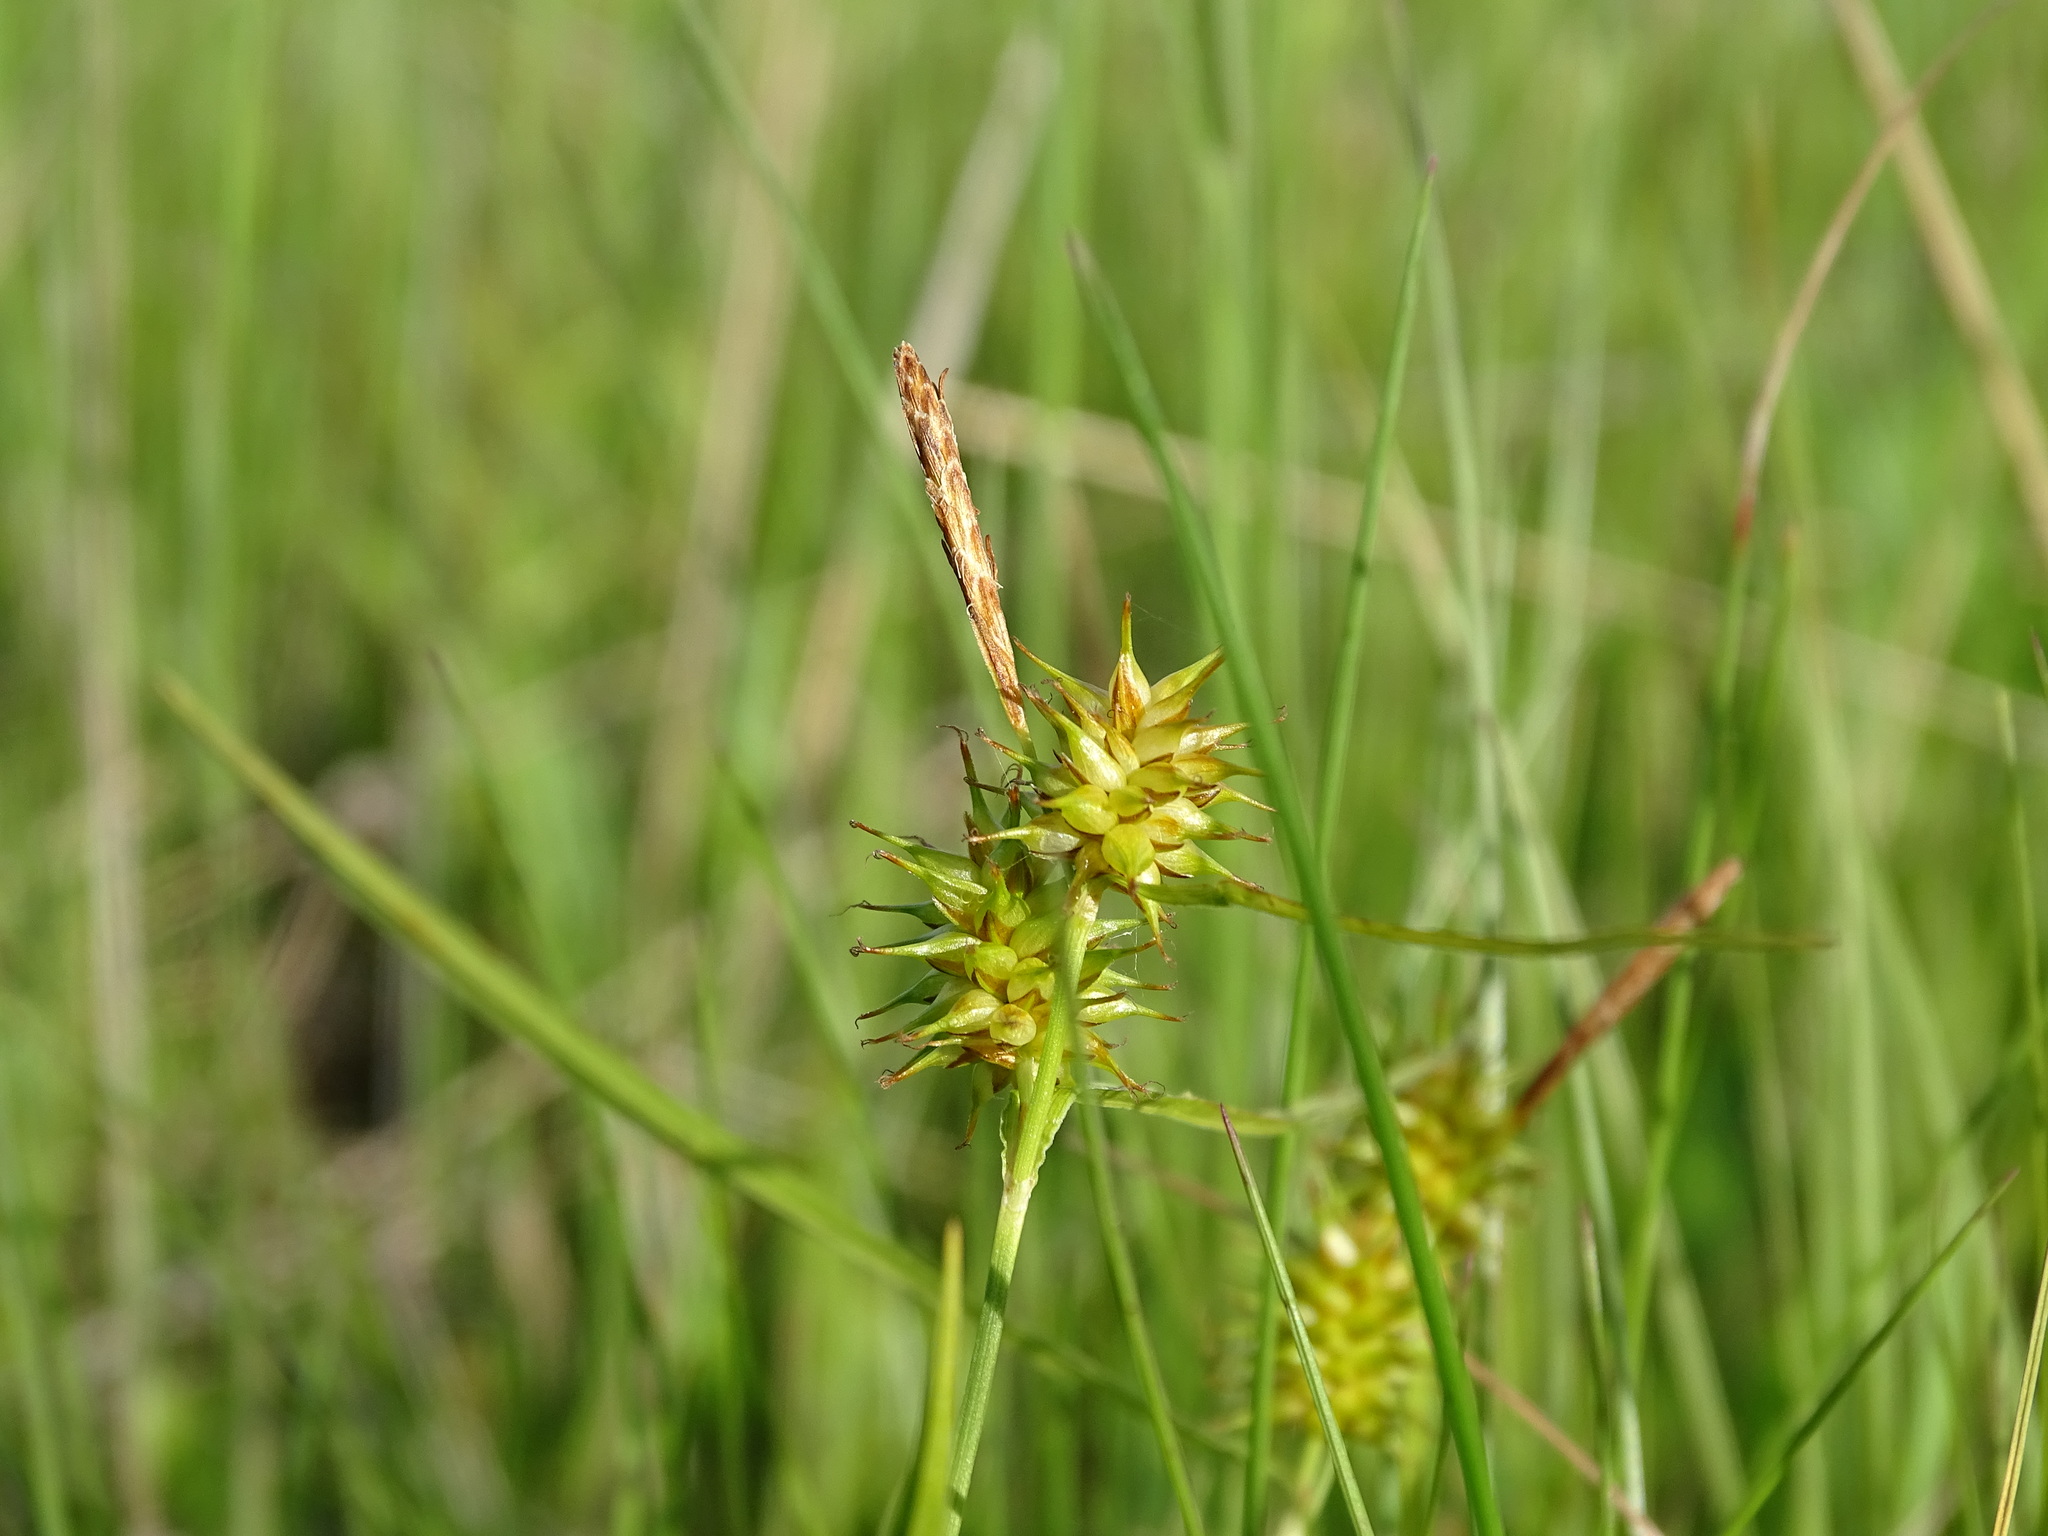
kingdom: Plantae
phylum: Tracheophyta
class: Liliopsida
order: Poales
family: Cyperaceae
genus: Carex
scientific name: Carex flava
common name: Large yellow-sedge
